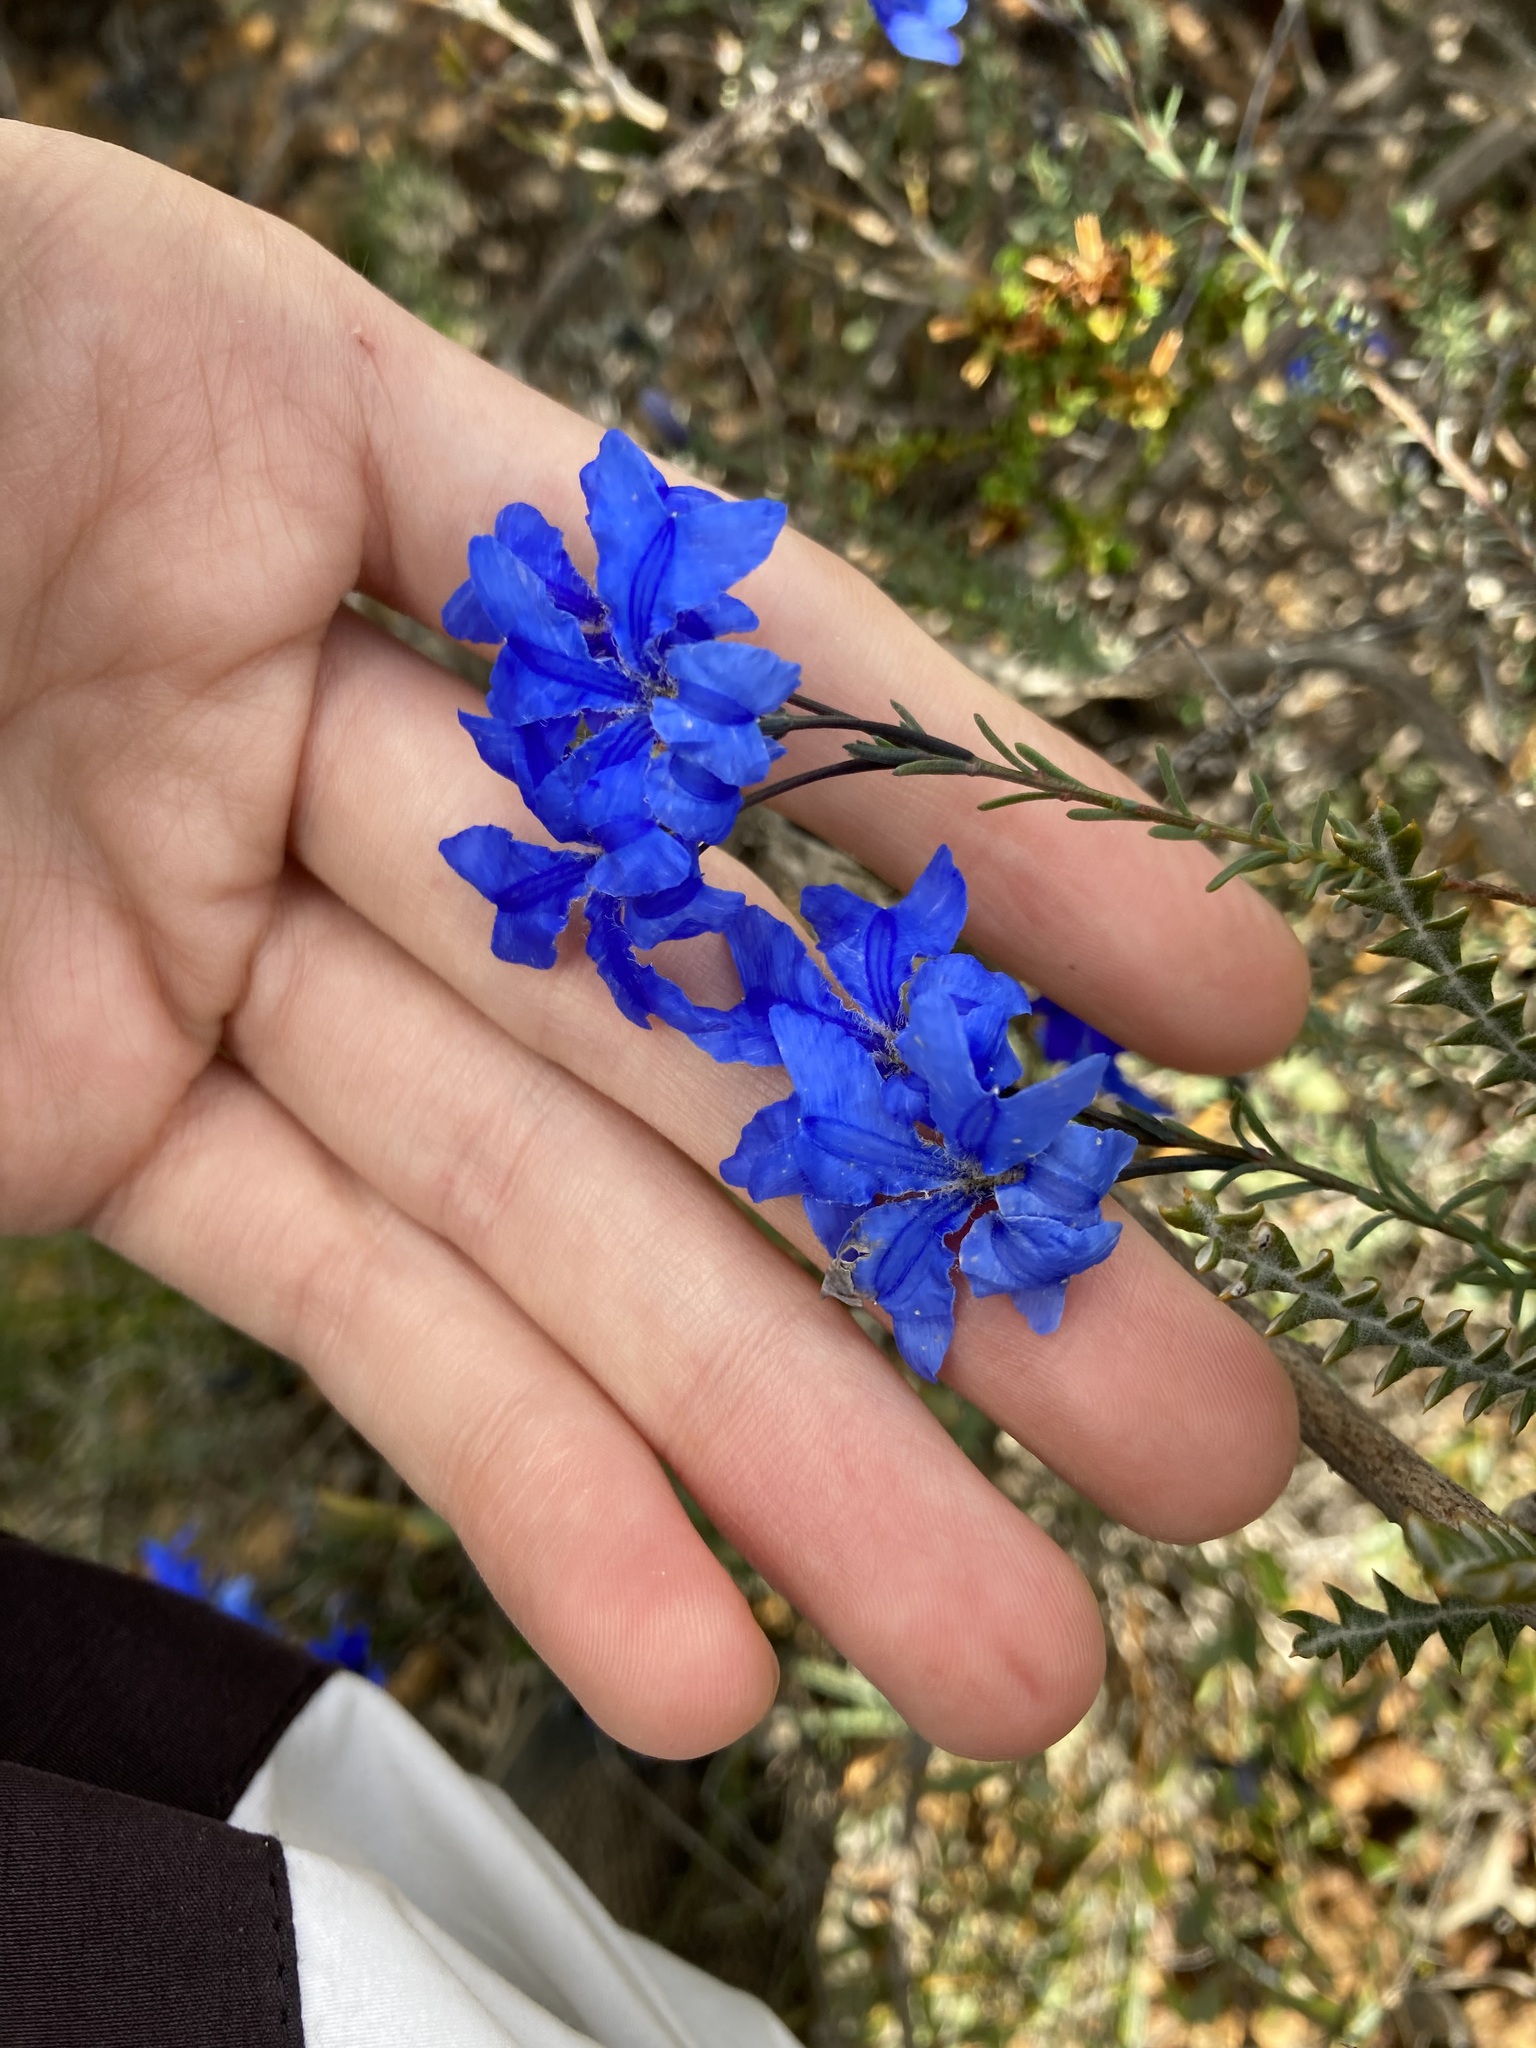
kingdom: Plantae
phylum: Tracheophyta
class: Magnoliopsida
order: Asterales
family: Goodeniaceae
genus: Lechenaultia
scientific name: Lechenaultia biloba
